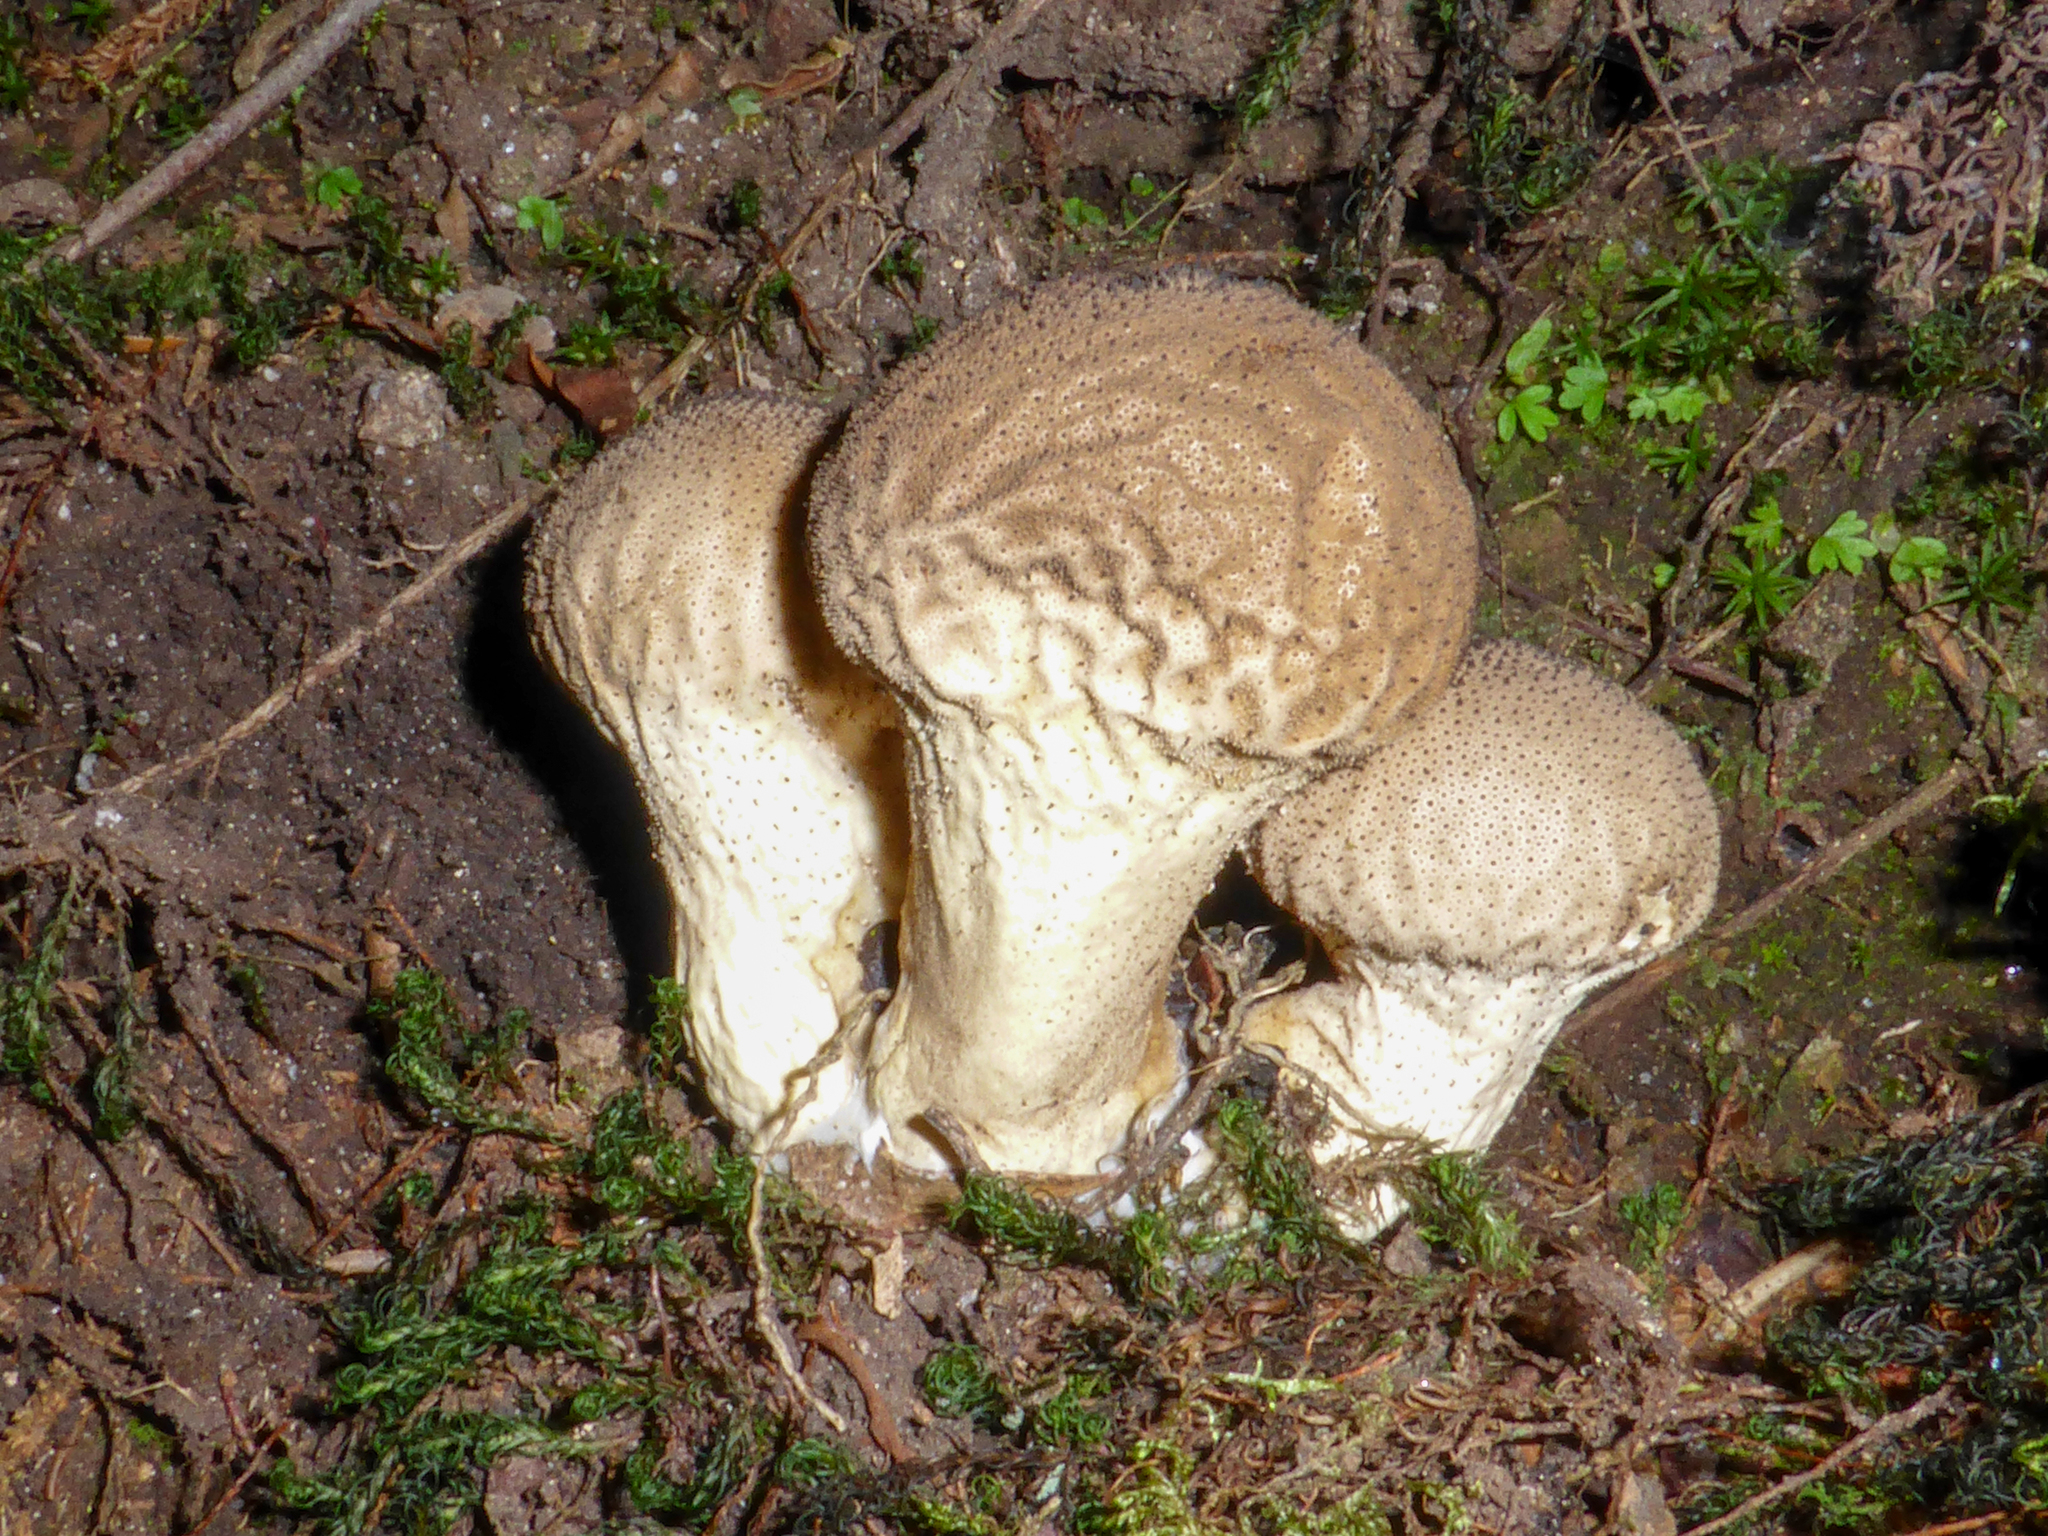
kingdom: Fungi
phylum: Basidiomycota
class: Agaricomycetes
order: Agaricales
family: Lycoperdaceae
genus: Lycoperdon
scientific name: Lycoperdon perlatum
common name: Common puffball
